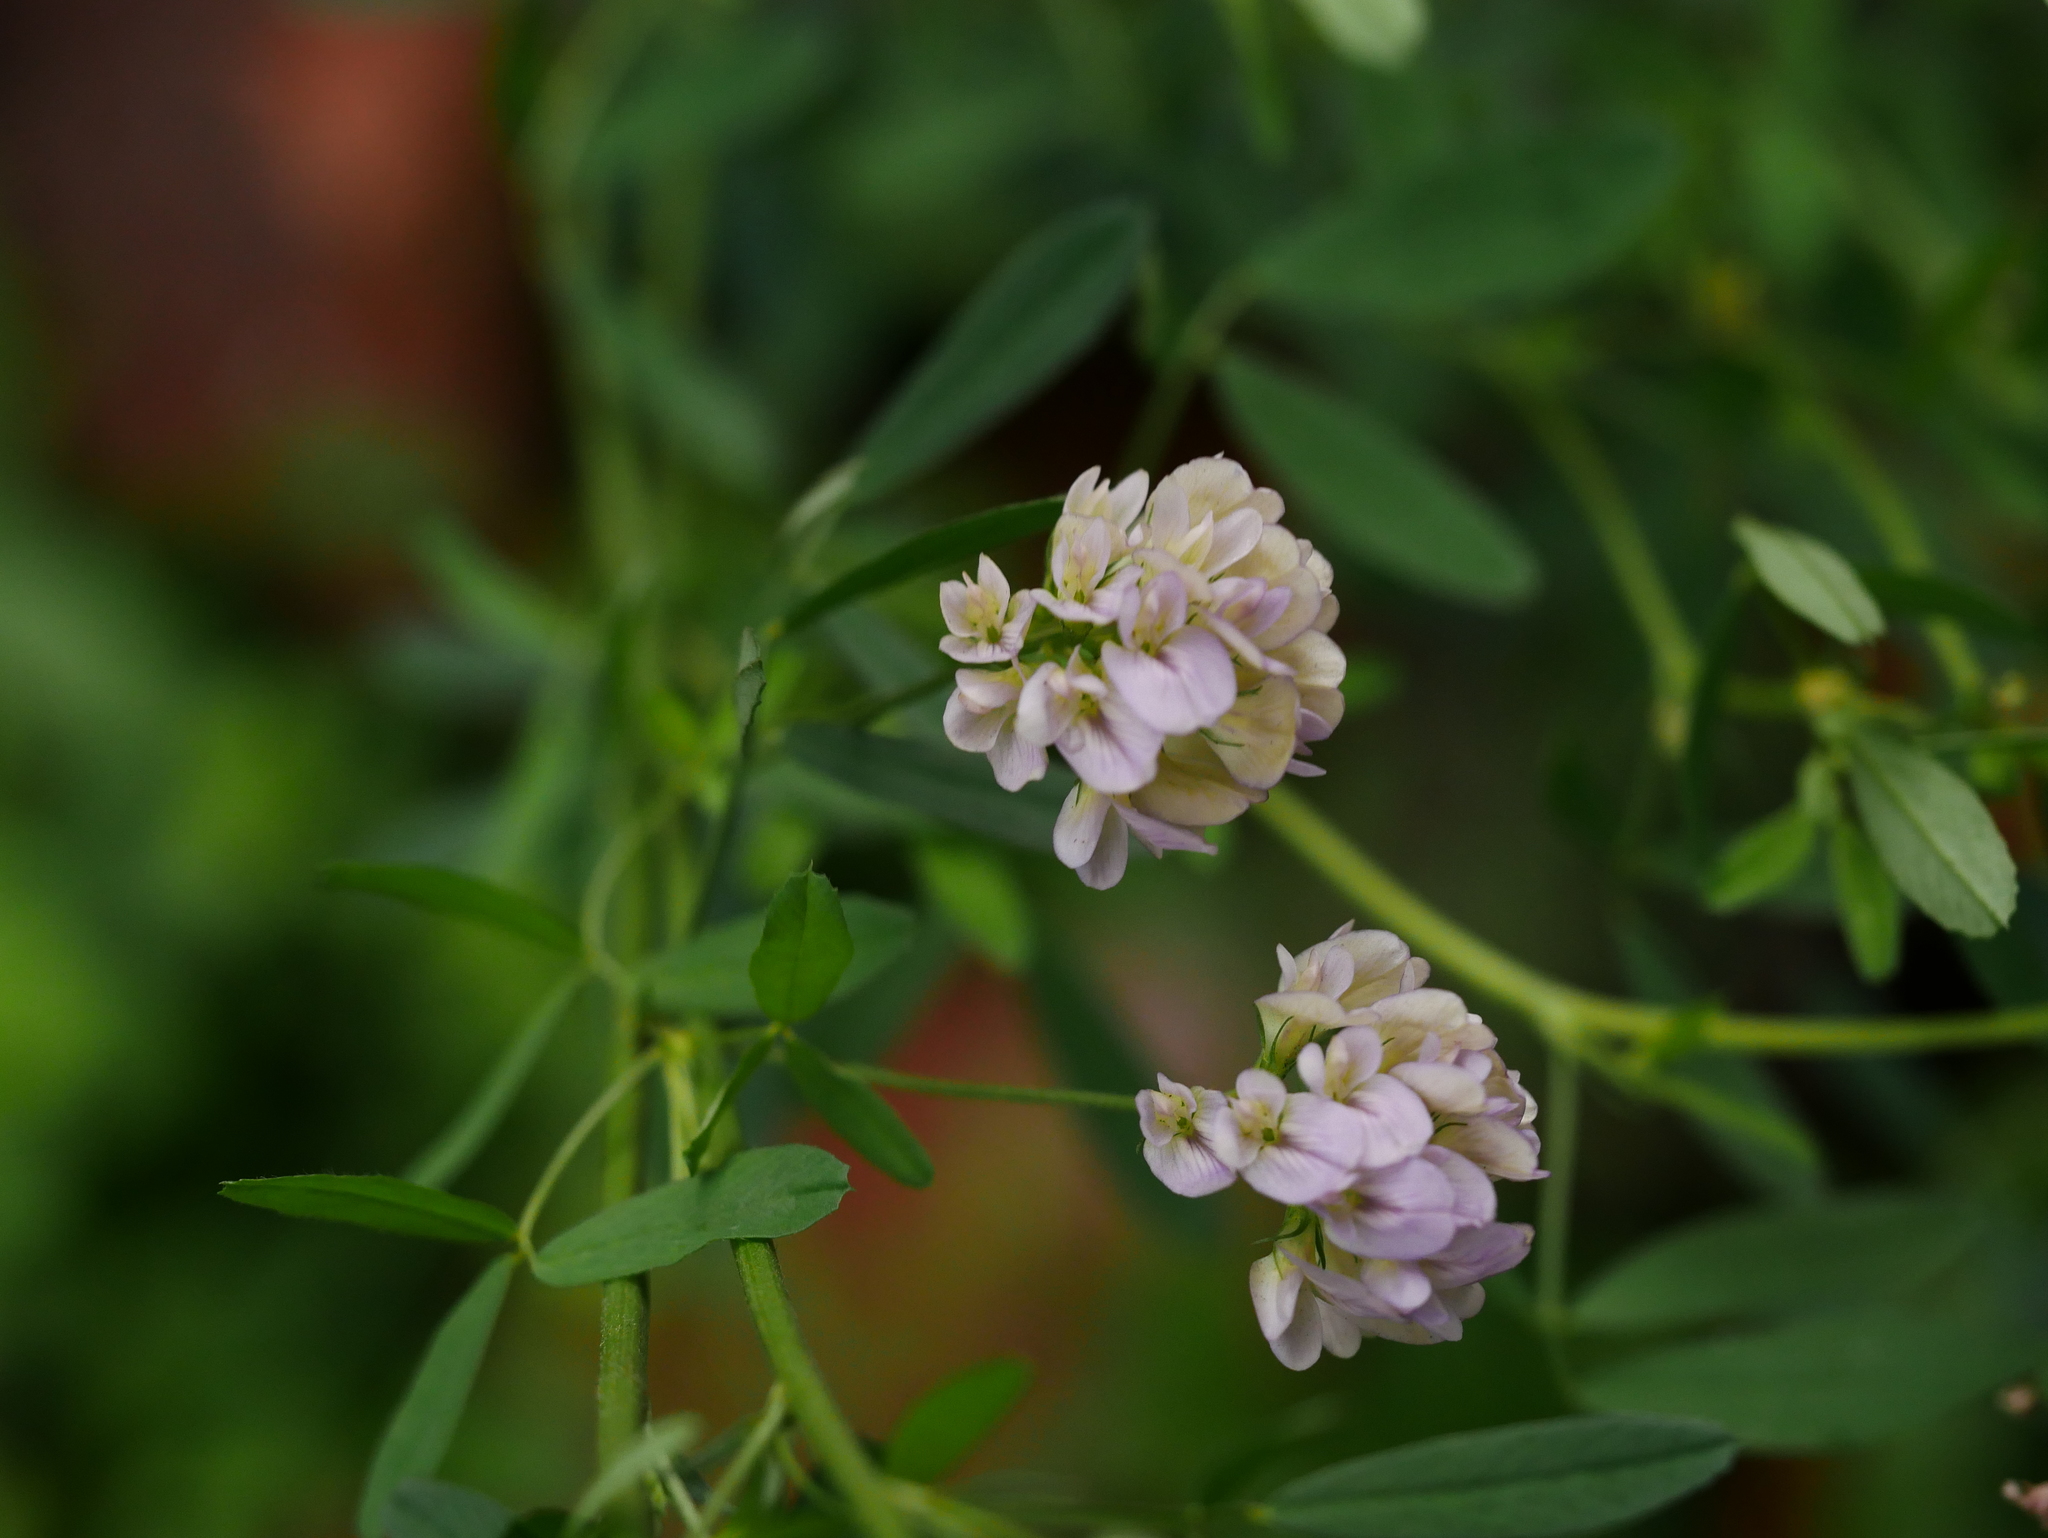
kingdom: Plantae
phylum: Tracheophyta
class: Magnoliopsida
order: Fabales
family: Fabaceae
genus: Medicago
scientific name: Medicago varia
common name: Sand lucerne
